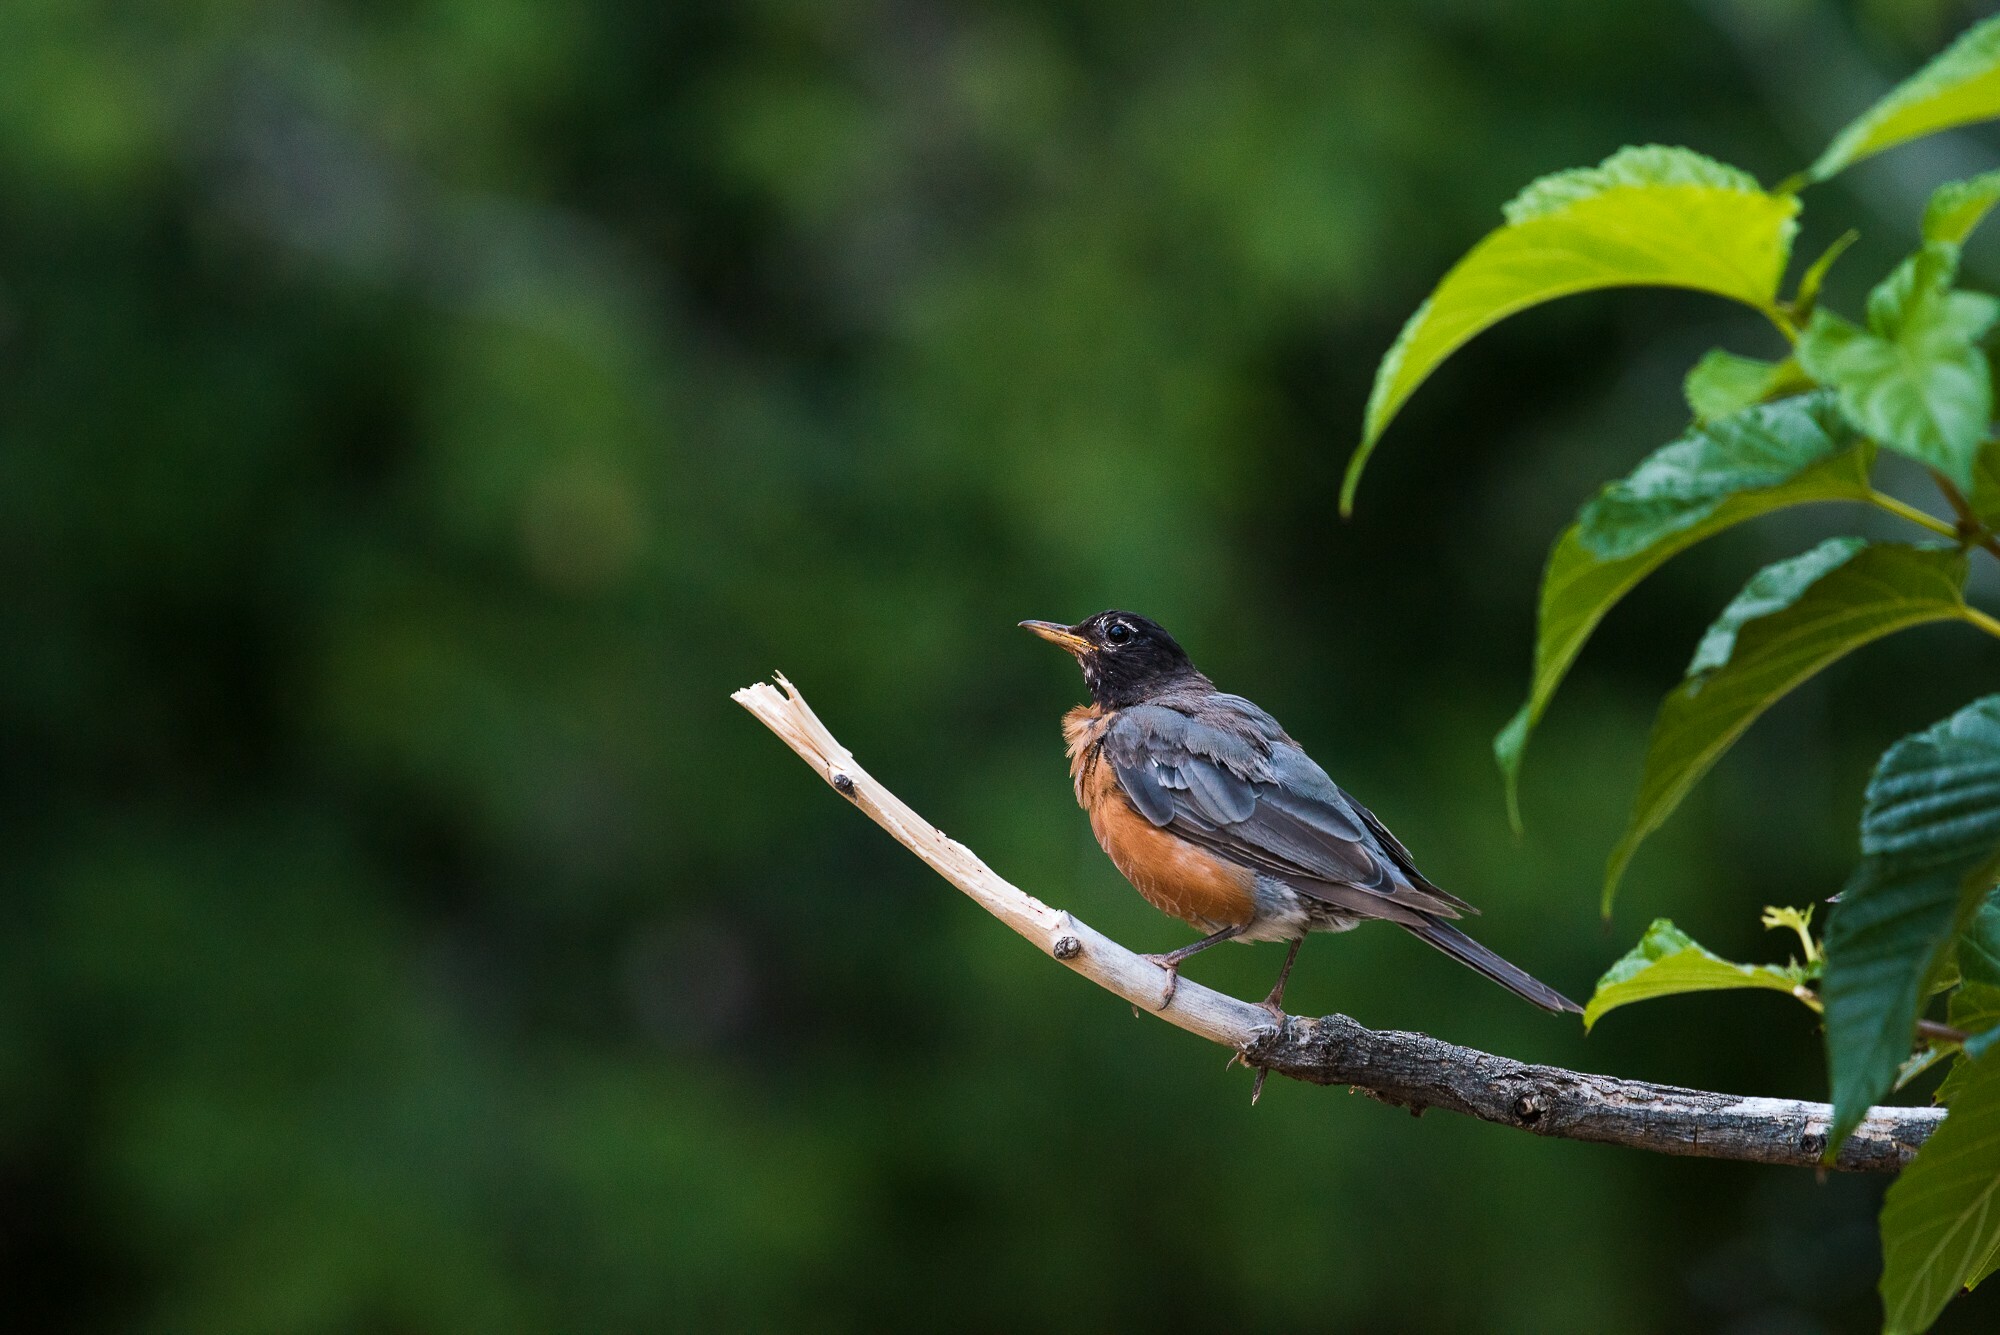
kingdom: Animalia
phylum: Chordata
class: Aves
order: Passeriformes
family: Turdidae
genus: Turdus
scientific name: Turdus migratorius
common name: American robin
